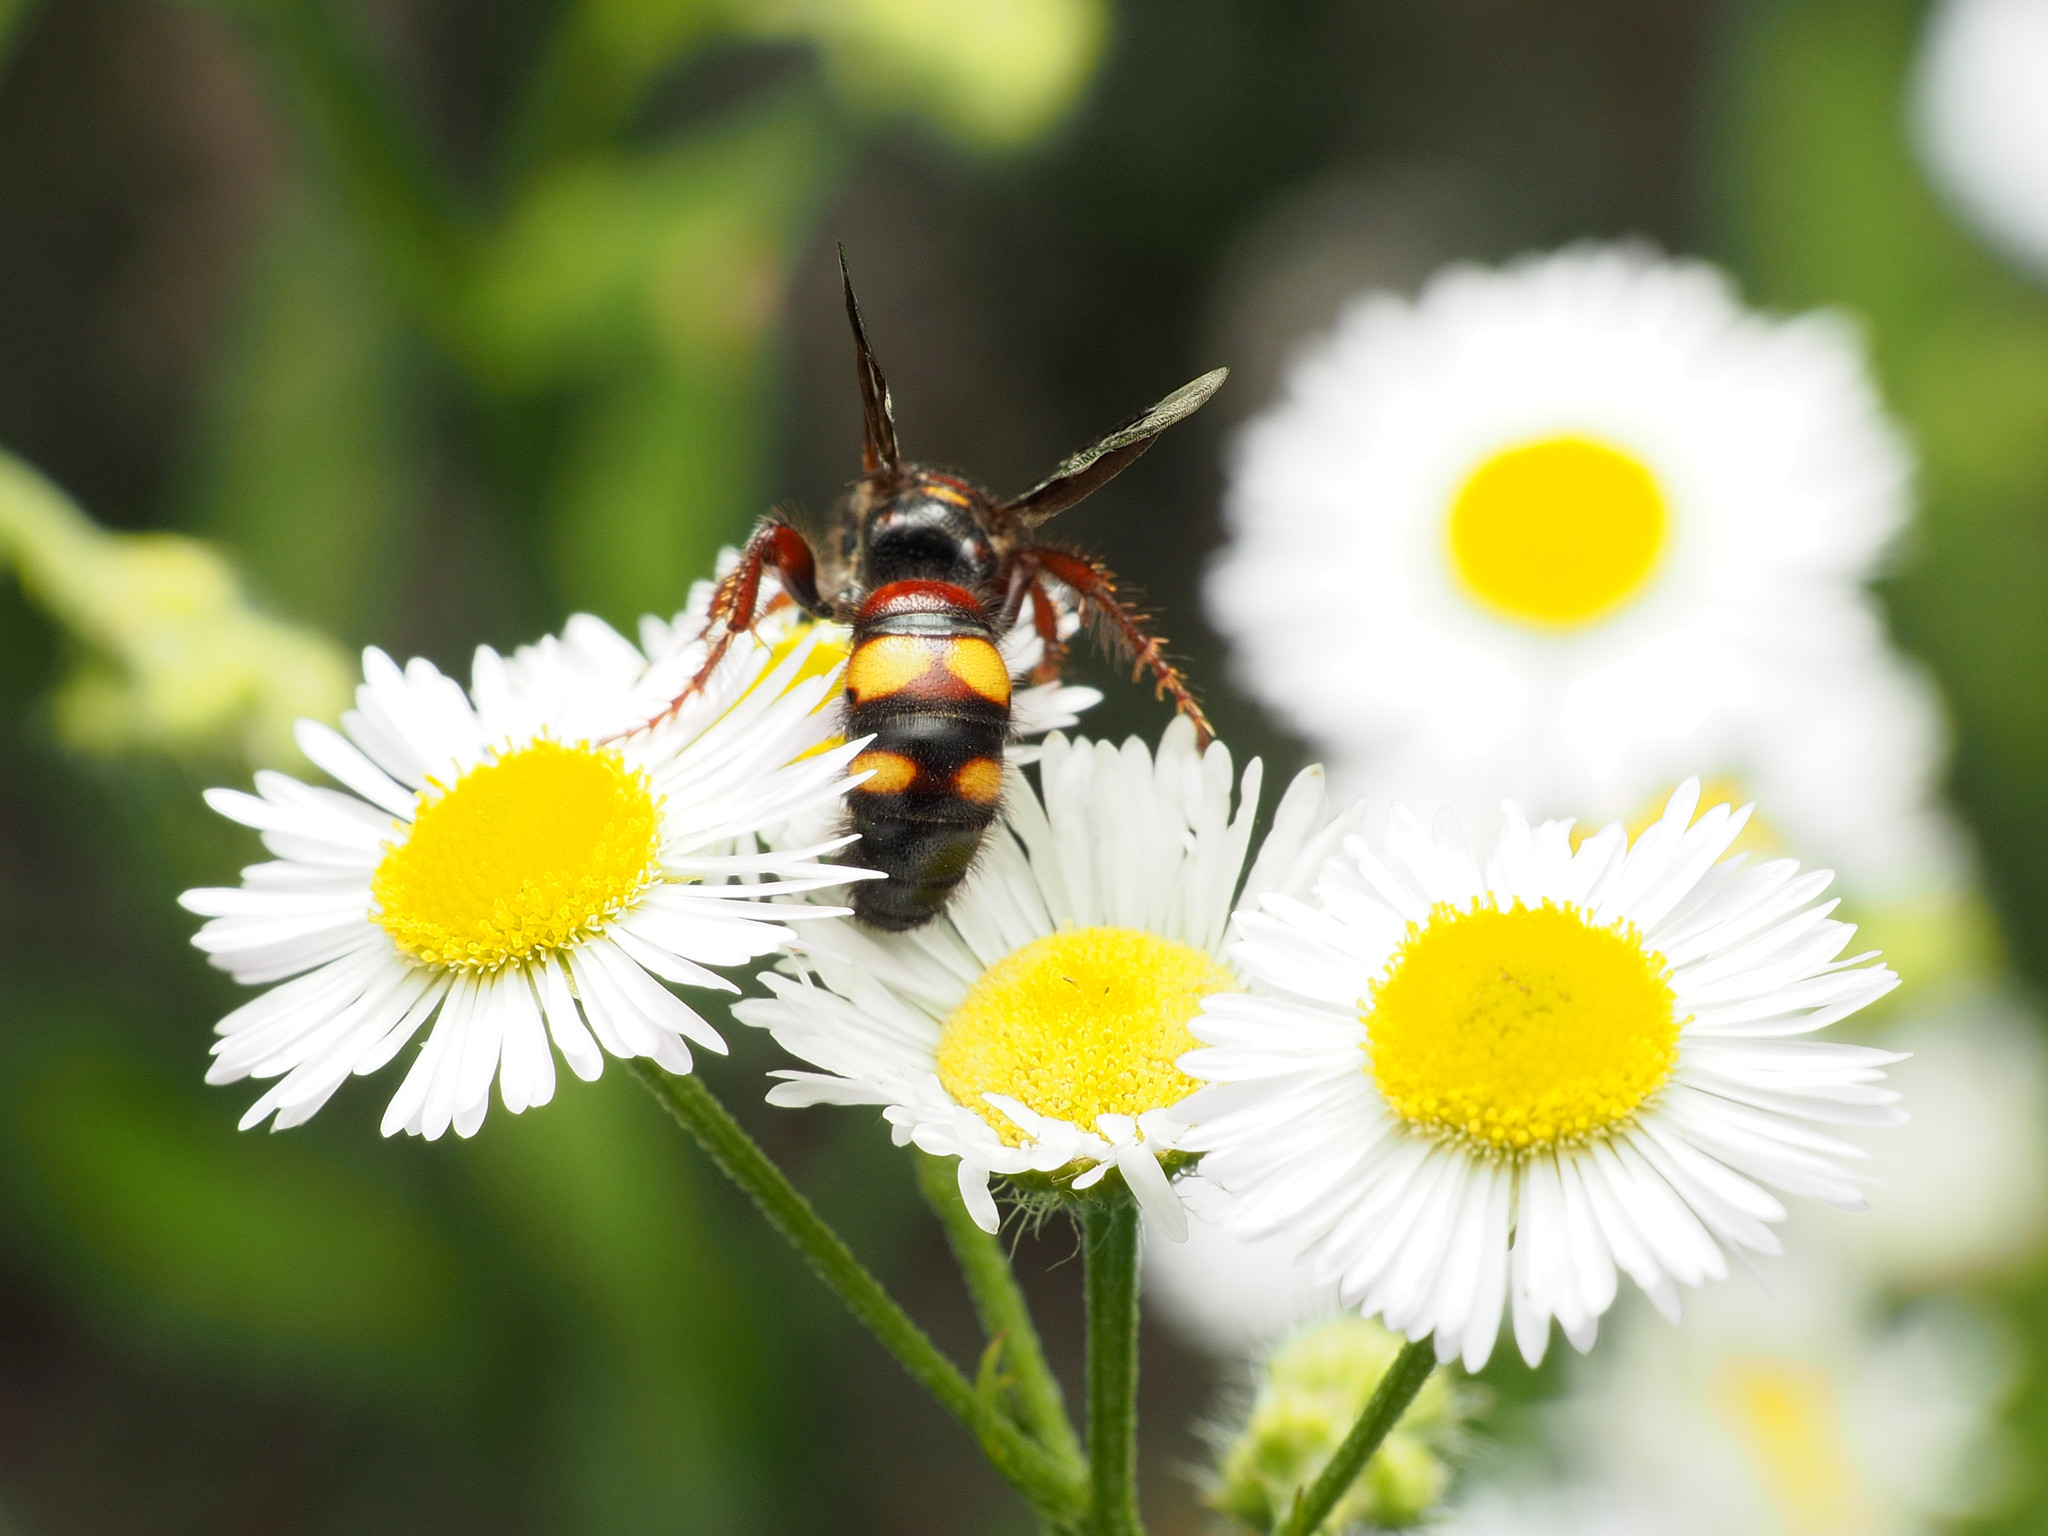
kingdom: Animalia
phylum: Arthropoda
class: Insecta
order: Hymenoptera
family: Scoliidae
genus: Scolia
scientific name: Scolia nobilitata
